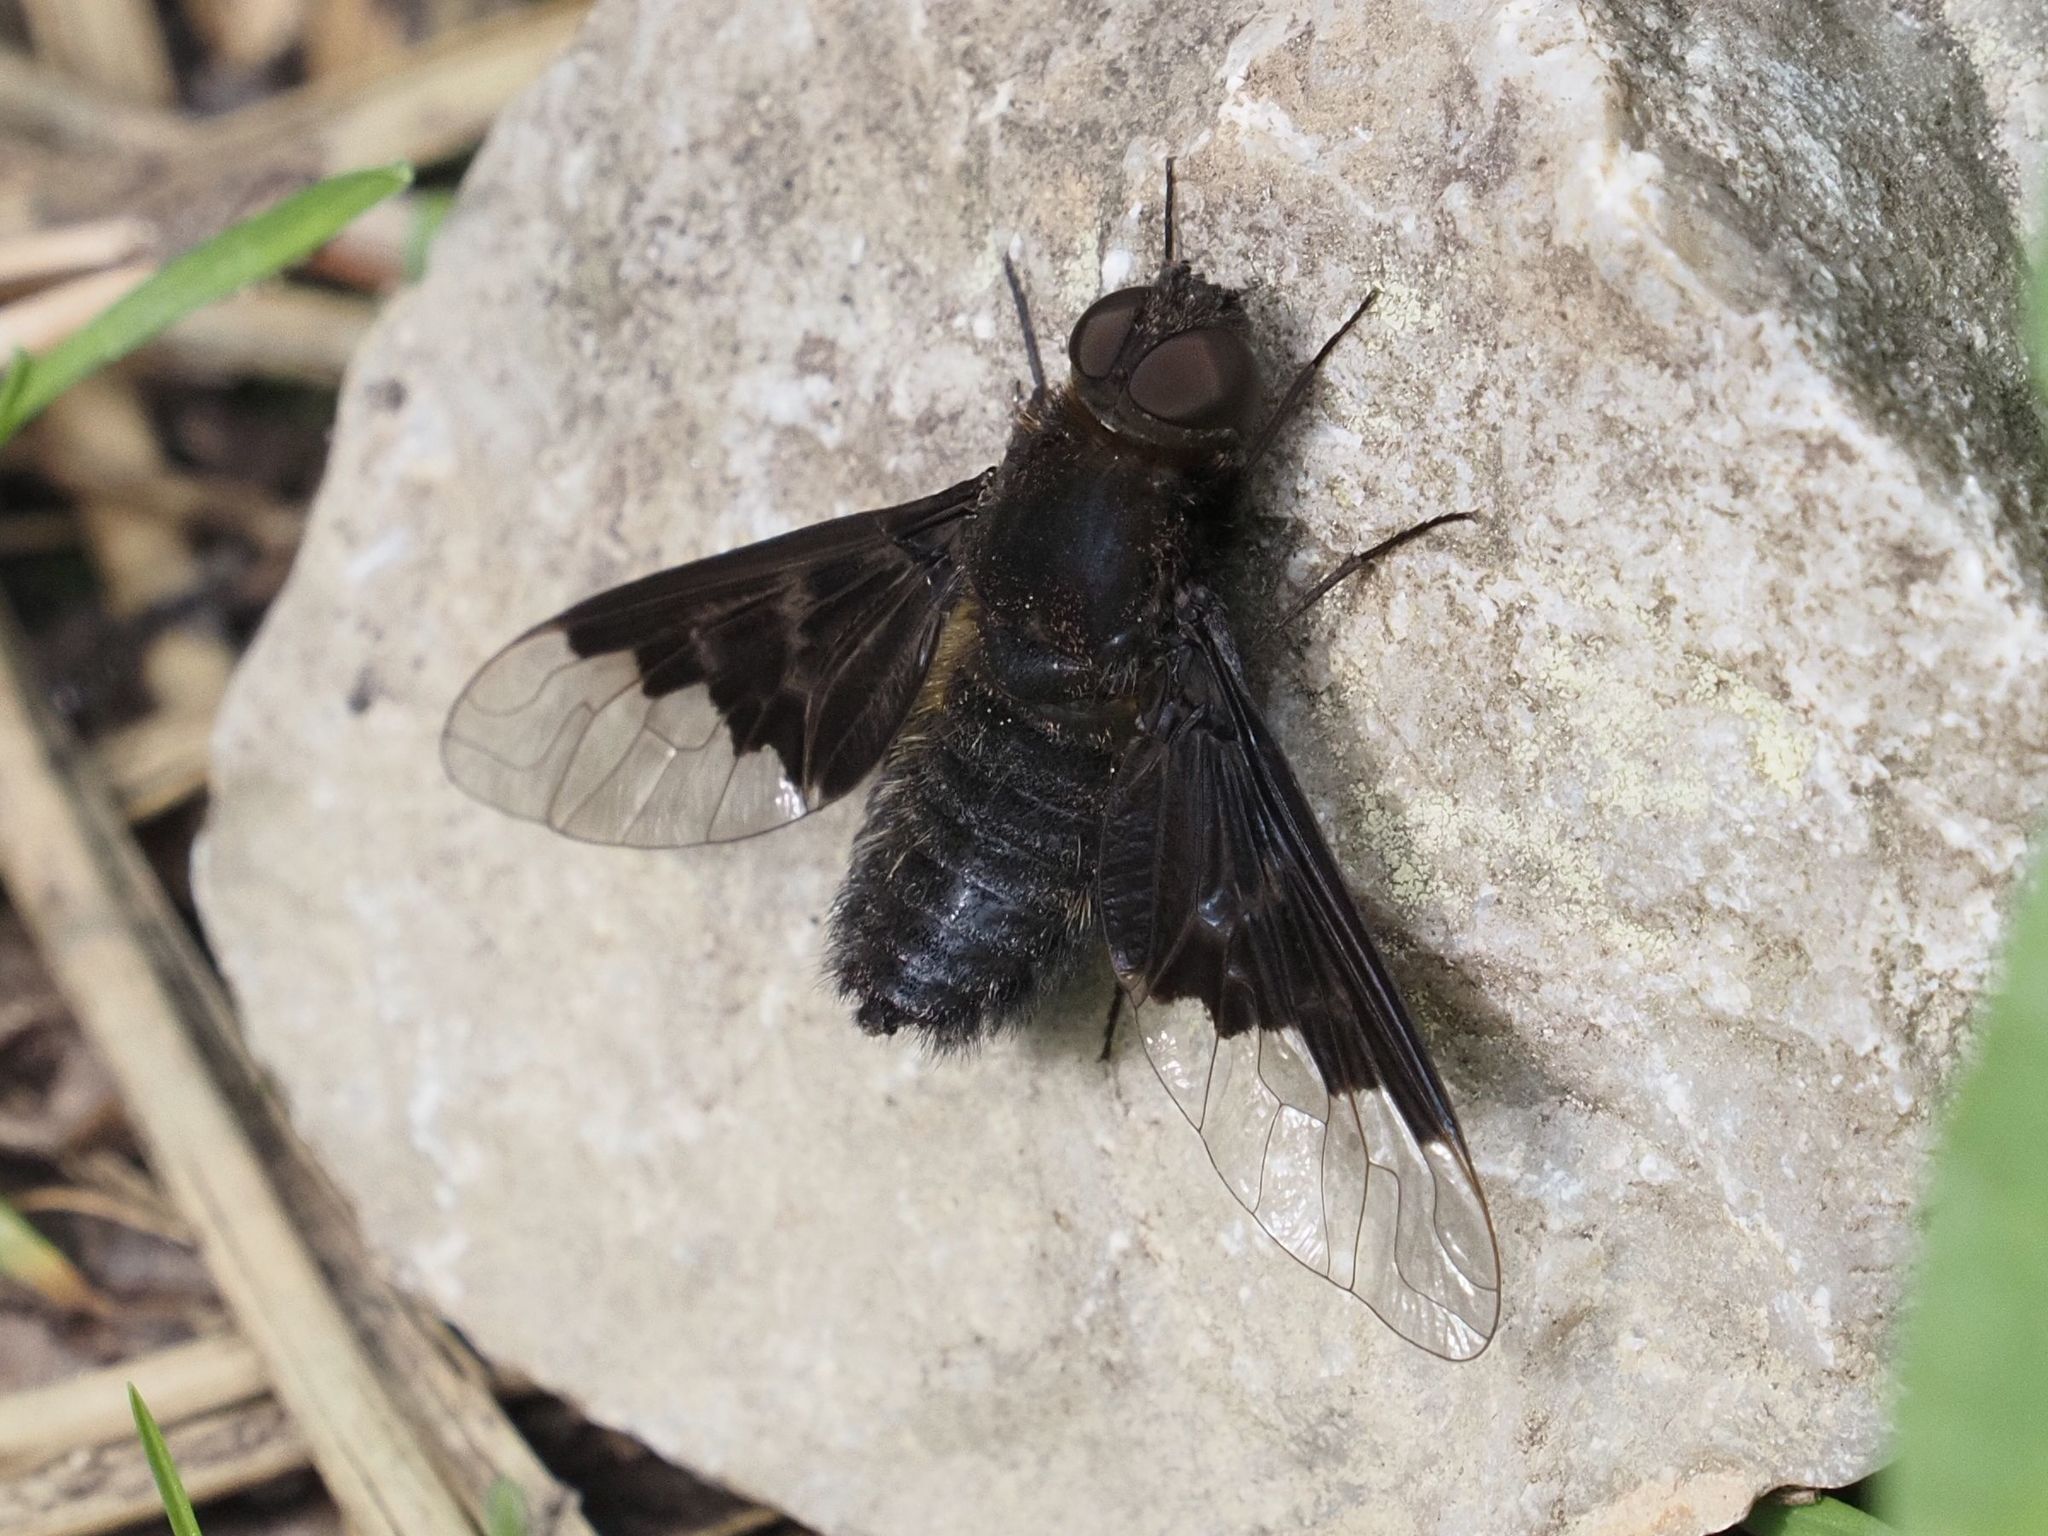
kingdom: Animalia
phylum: Arthropoda
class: Insecta
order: Diptera
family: Bombyliidae
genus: Hemipenthes
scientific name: Hemipenthes morio
